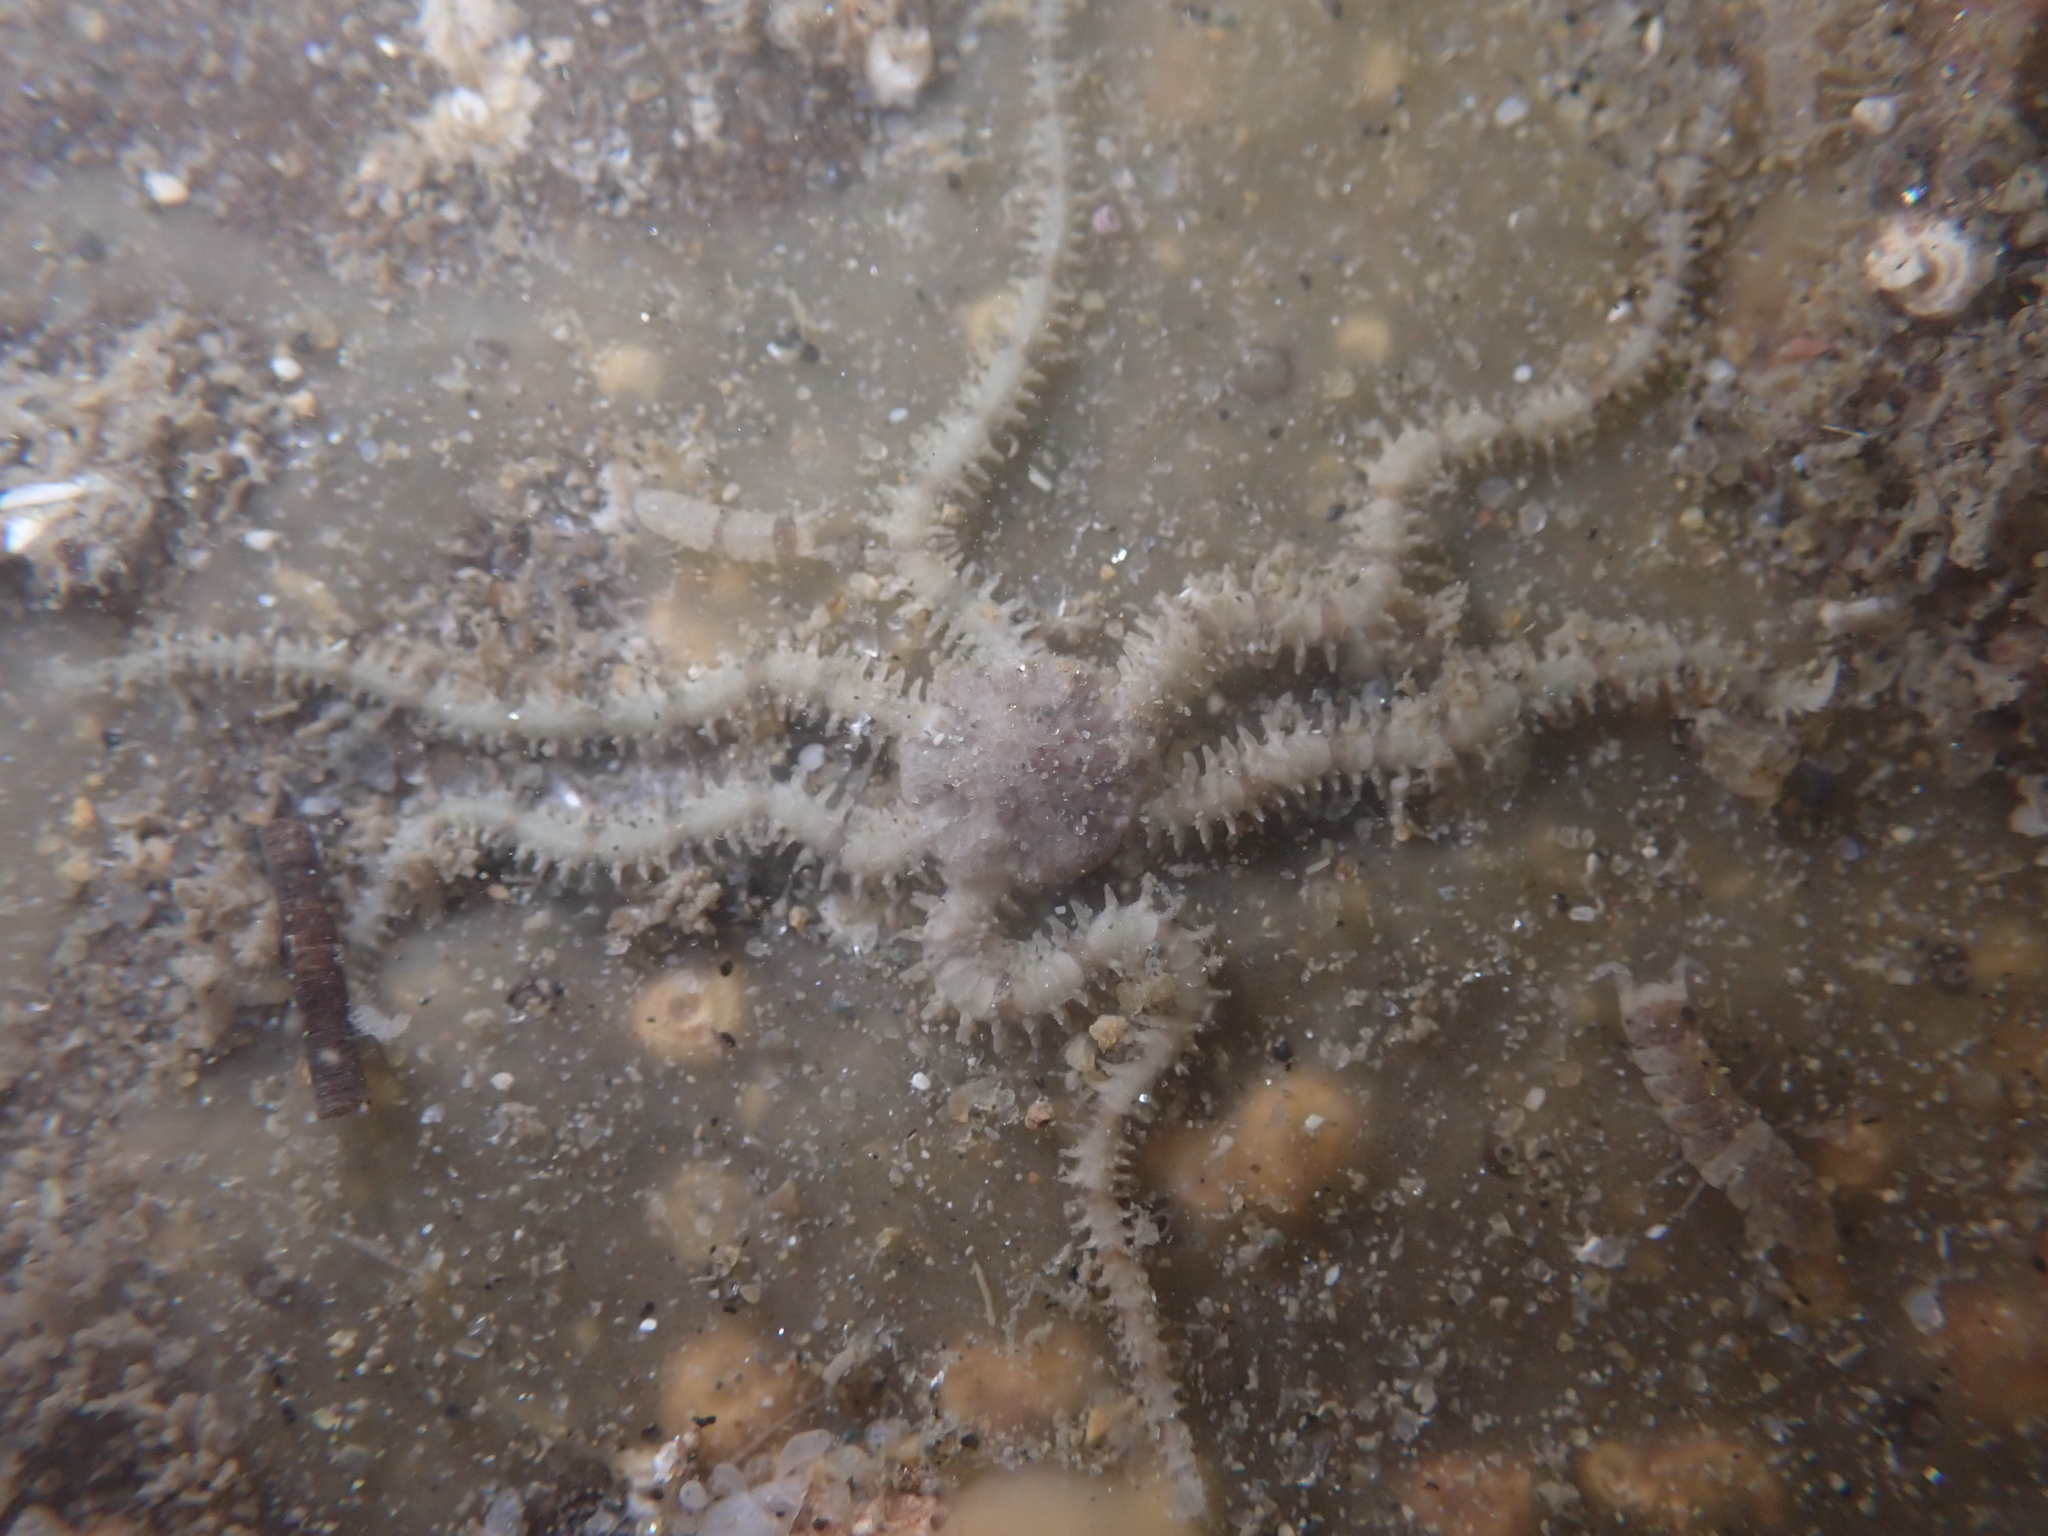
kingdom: Animalia
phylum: Echinodermata
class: Ophiuroidea
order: Amphilepidida
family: Ophiactidae
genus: Ophiactis
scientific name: Ophiactis savignyi
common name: Savigny's brittle star
